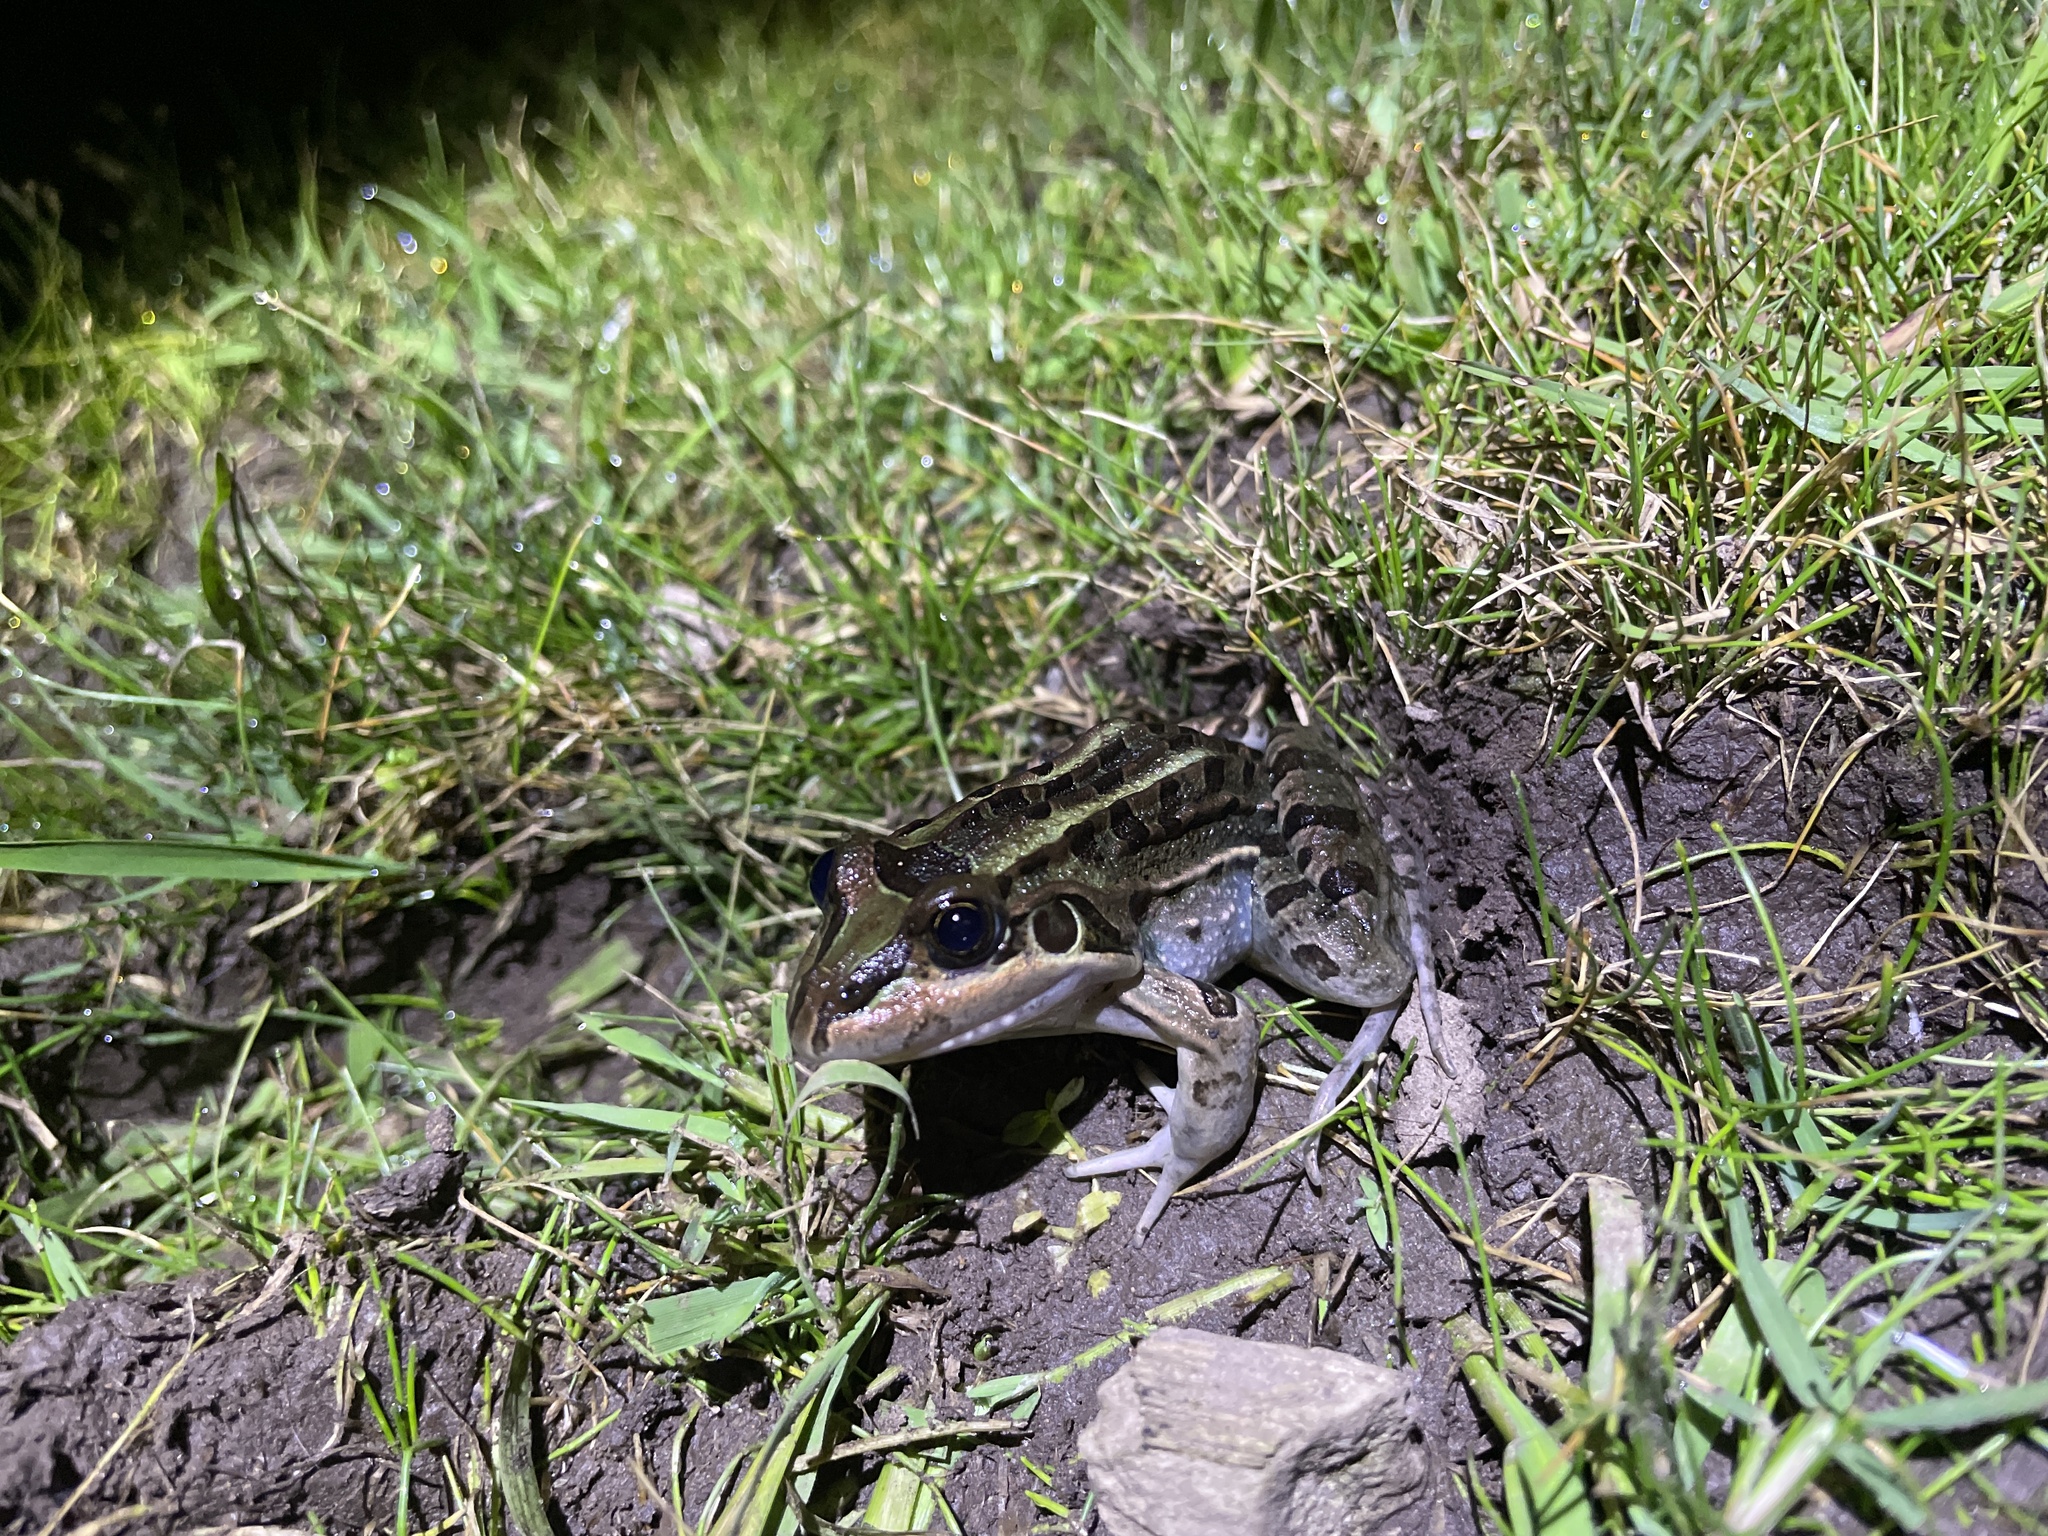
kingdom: Animalia
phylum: Chordata
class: Amphibia
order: Anura
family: Leptodactylidae
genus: Leptodactylus
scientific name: Leptodactylus luctator
